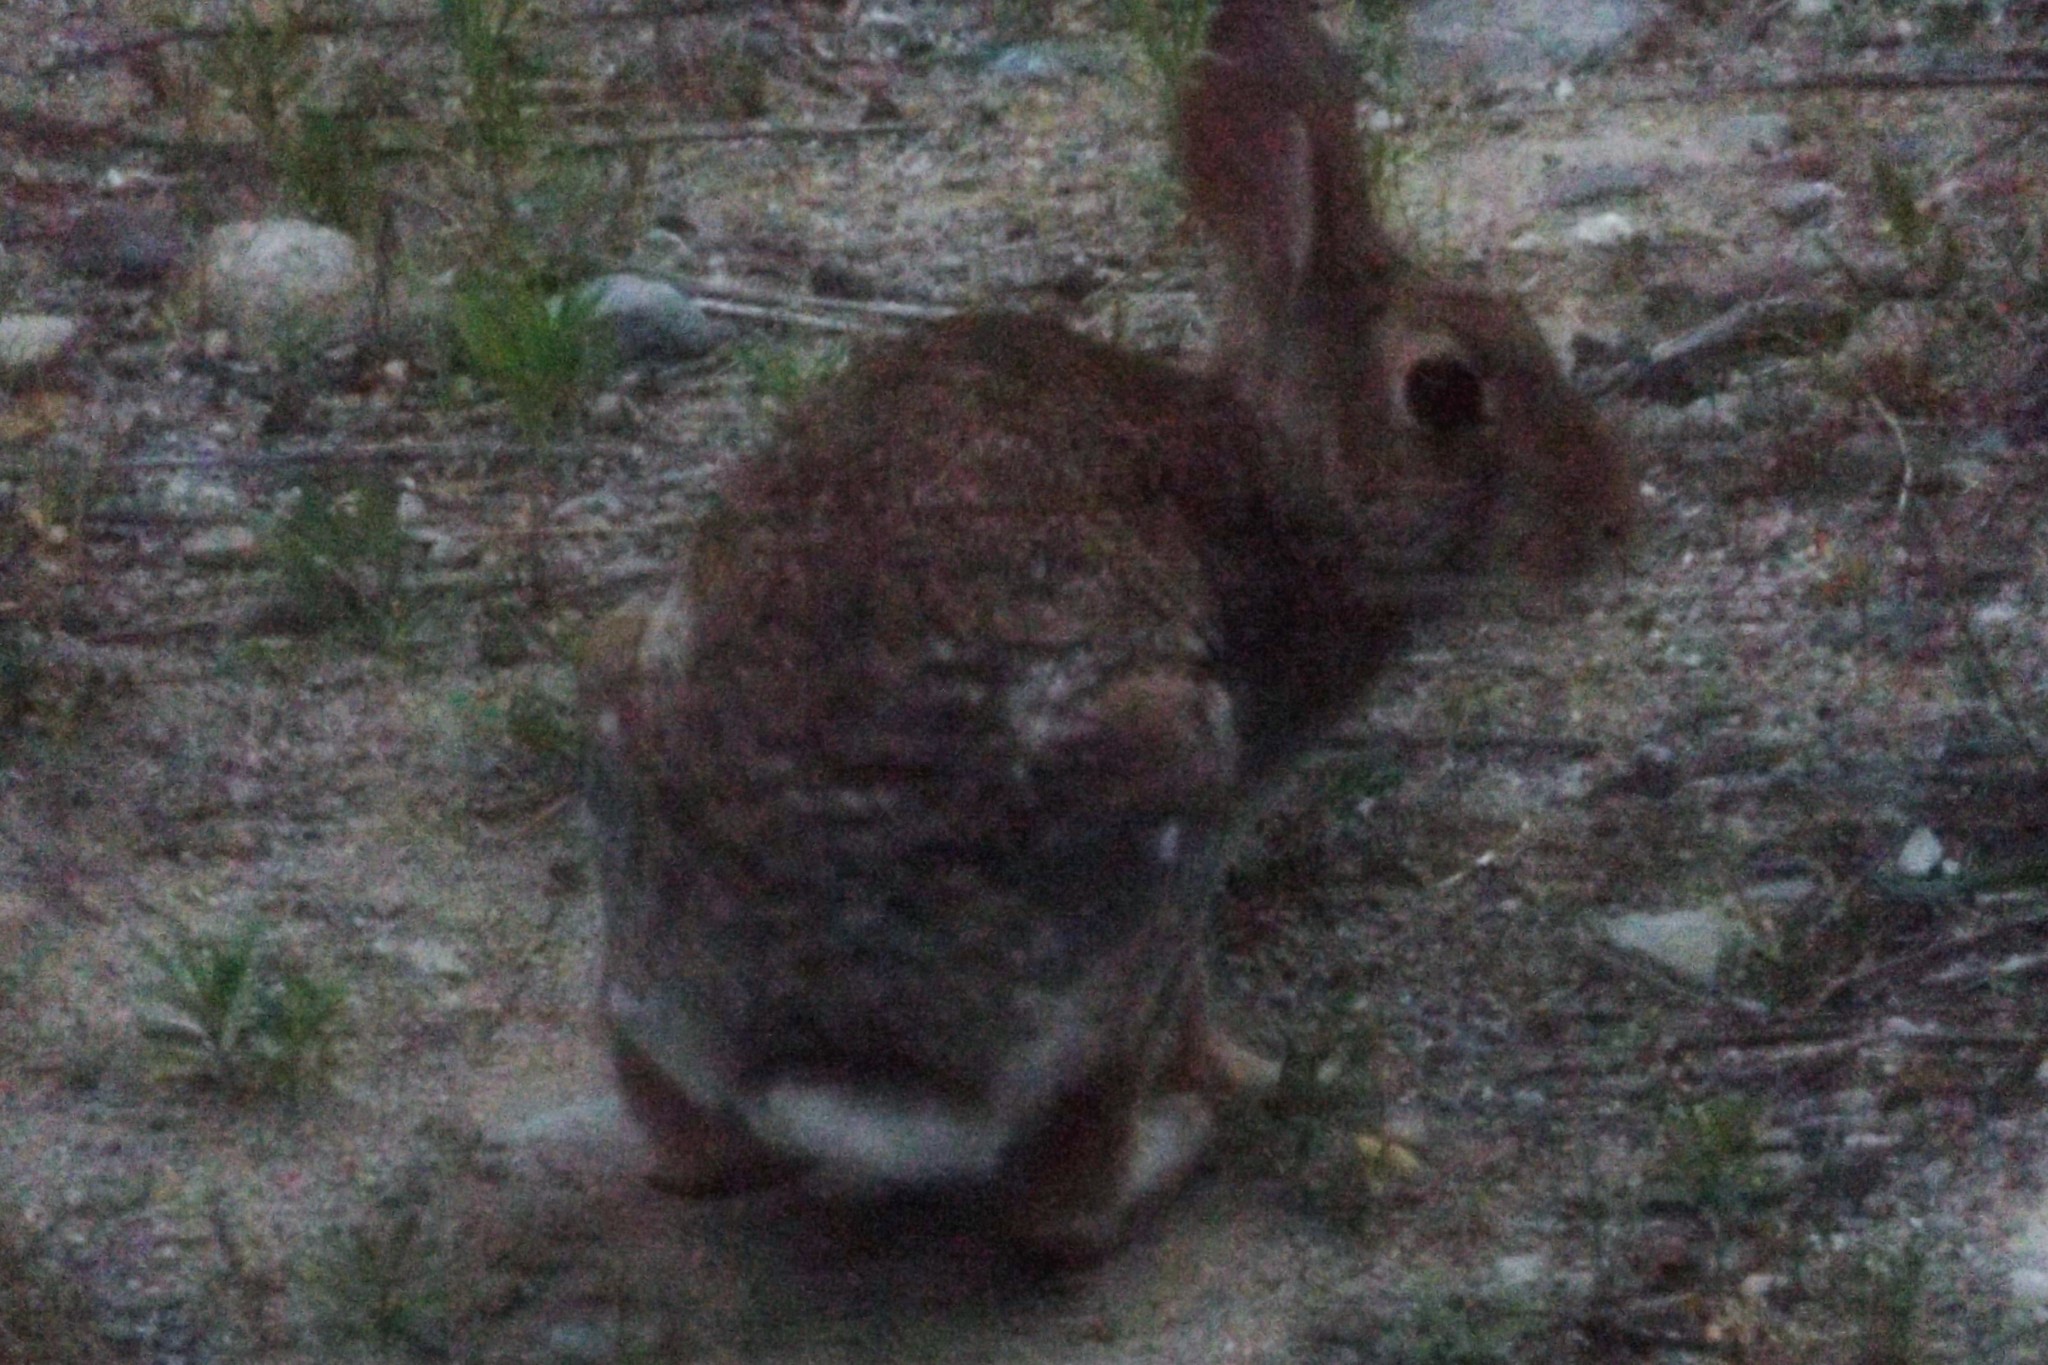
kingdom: Animalia
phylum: Chordata
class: Mammalia
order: Lagomorpha
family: Leporidae
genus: Sylvilagus
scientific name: Sylvilagus floridanus
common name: Eastern cottontail
